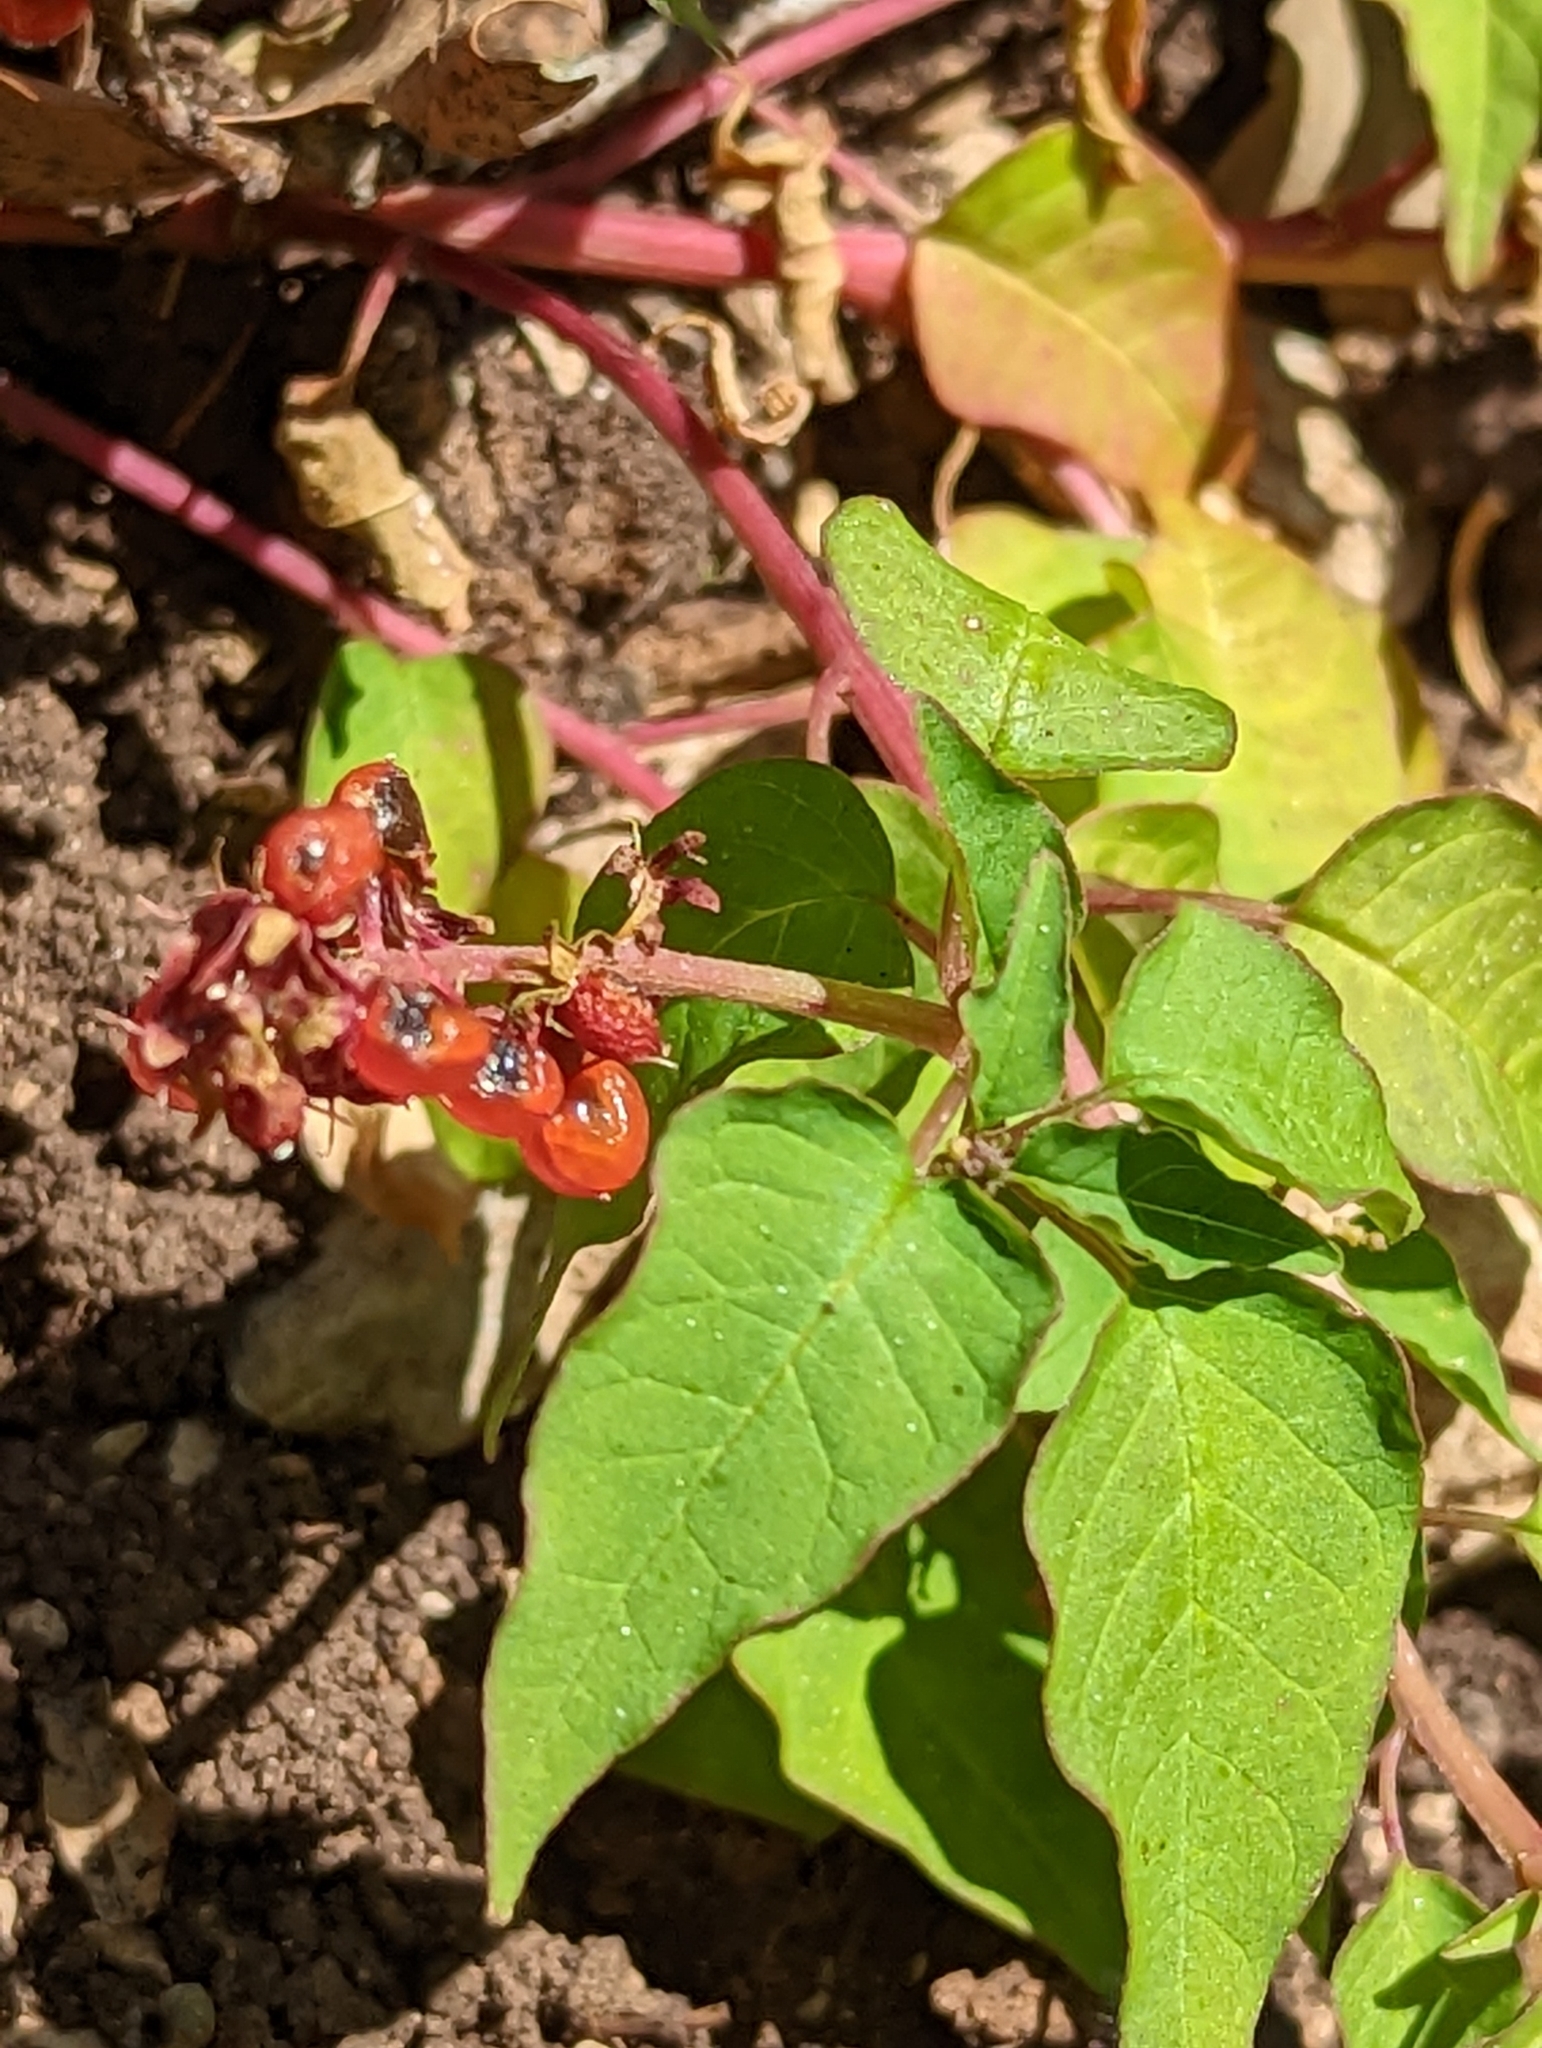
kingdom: Plantae
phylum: Tracheophyta
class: Magnoliopsida
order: Caryophyllales
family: Phytolaccaceae
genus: Rivina
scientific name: Rivina humilis
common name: Rougeplant
